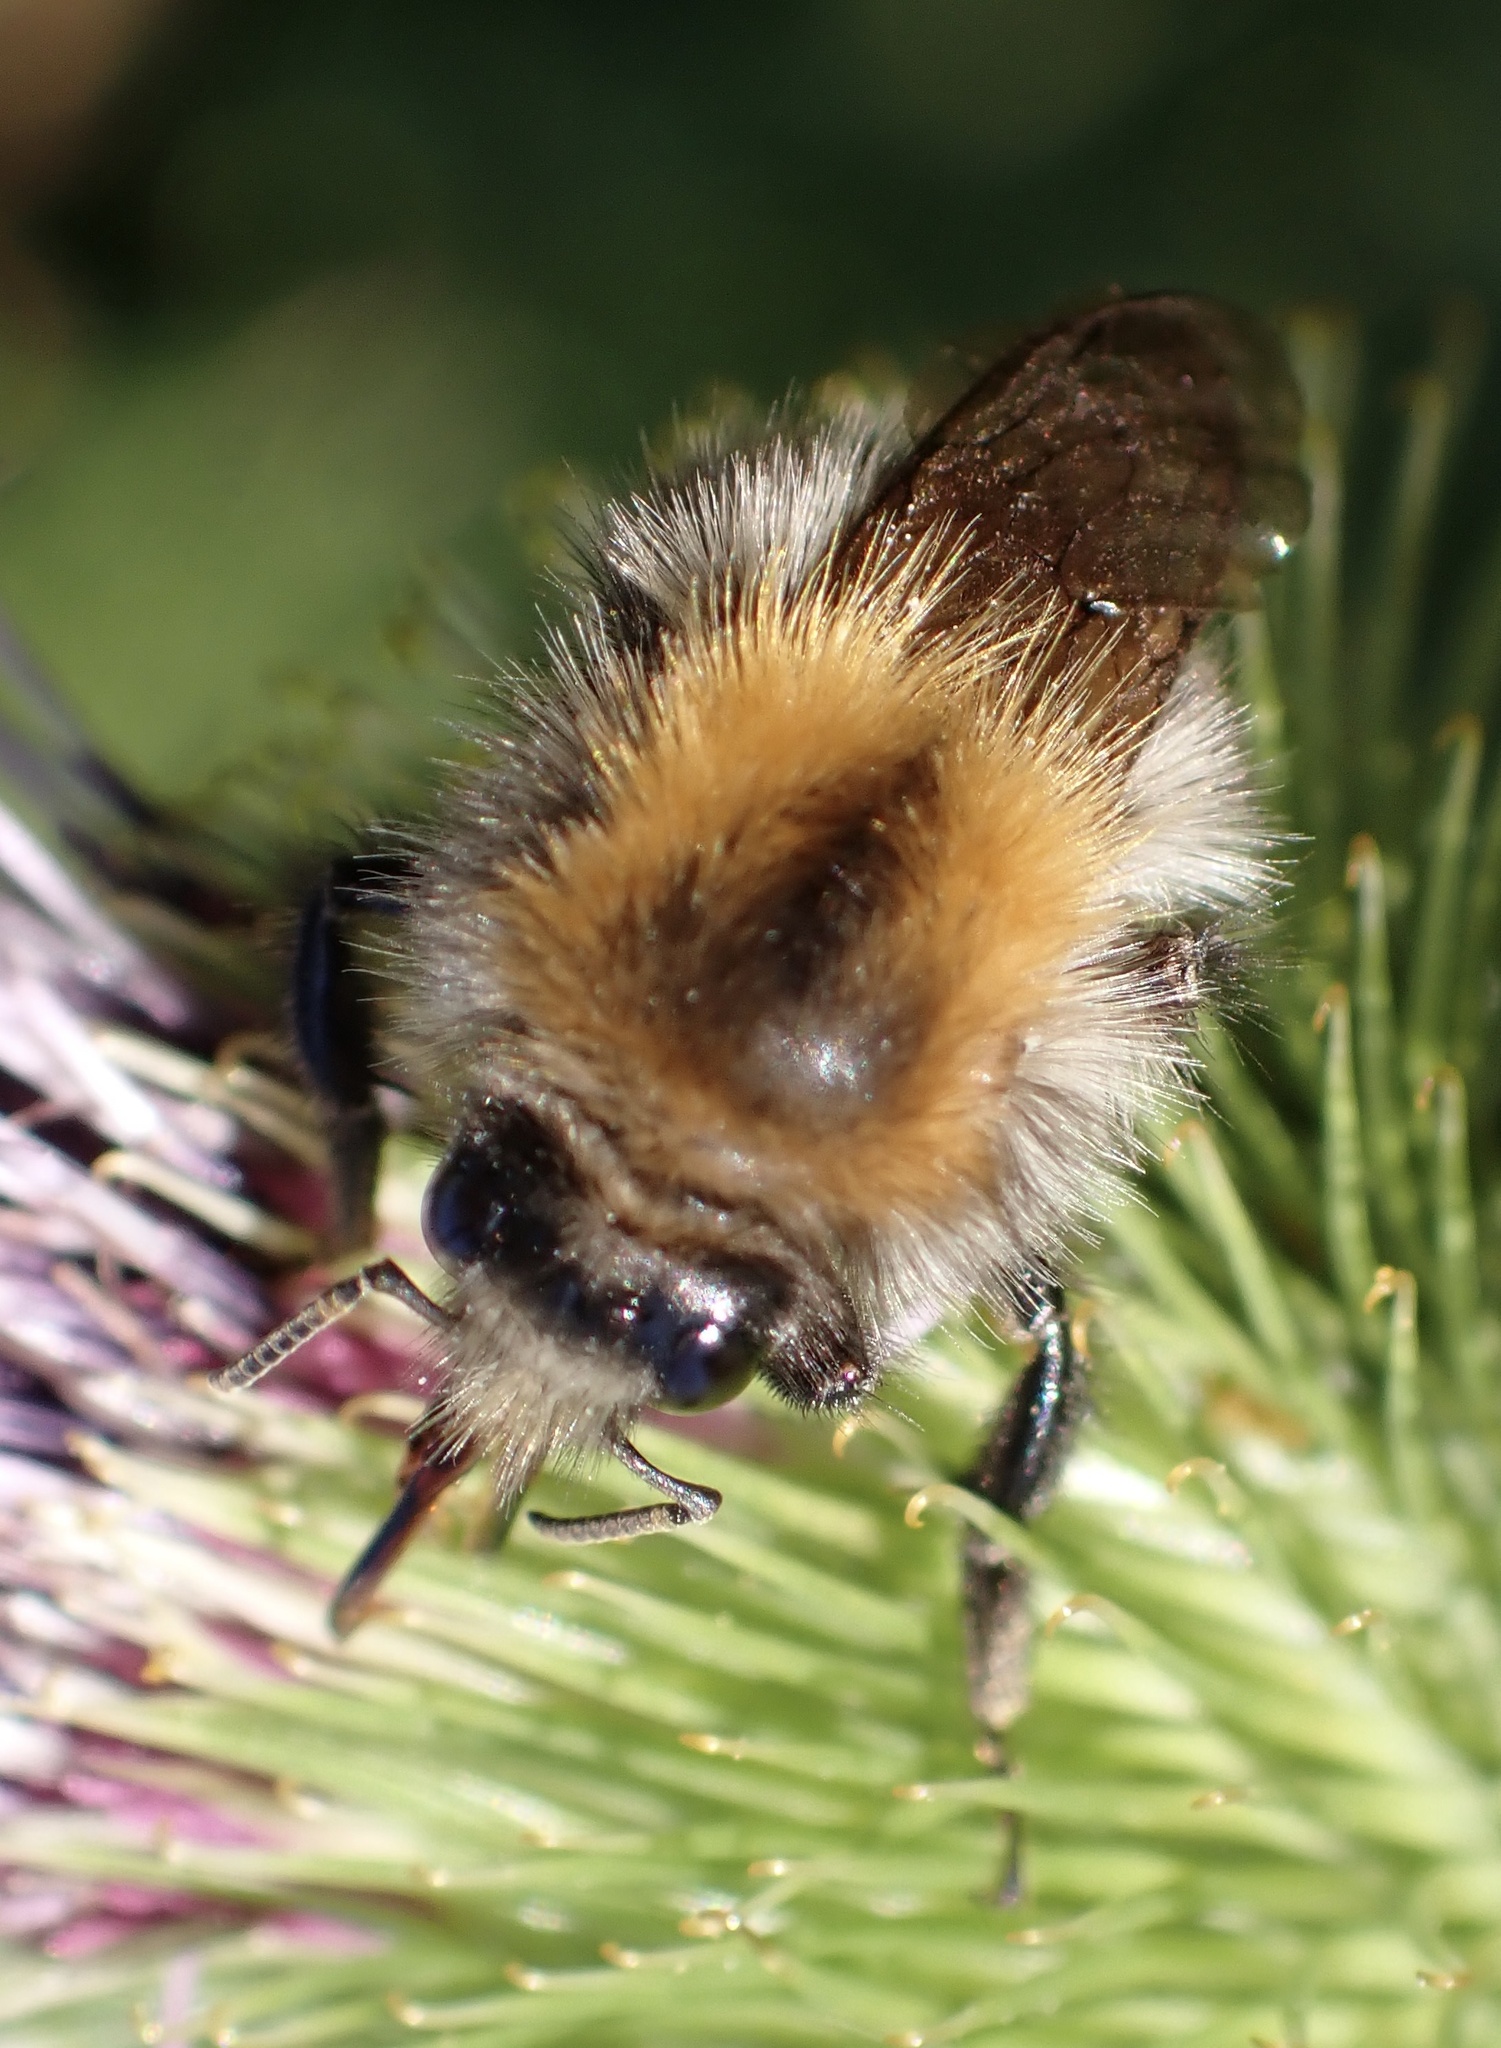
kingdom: Animalia
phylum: Arthropoda
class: Insecta
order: Hymenoptera
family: Apidae
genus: Bombus
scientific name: Bombus pascuorum
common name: Common carder bee
